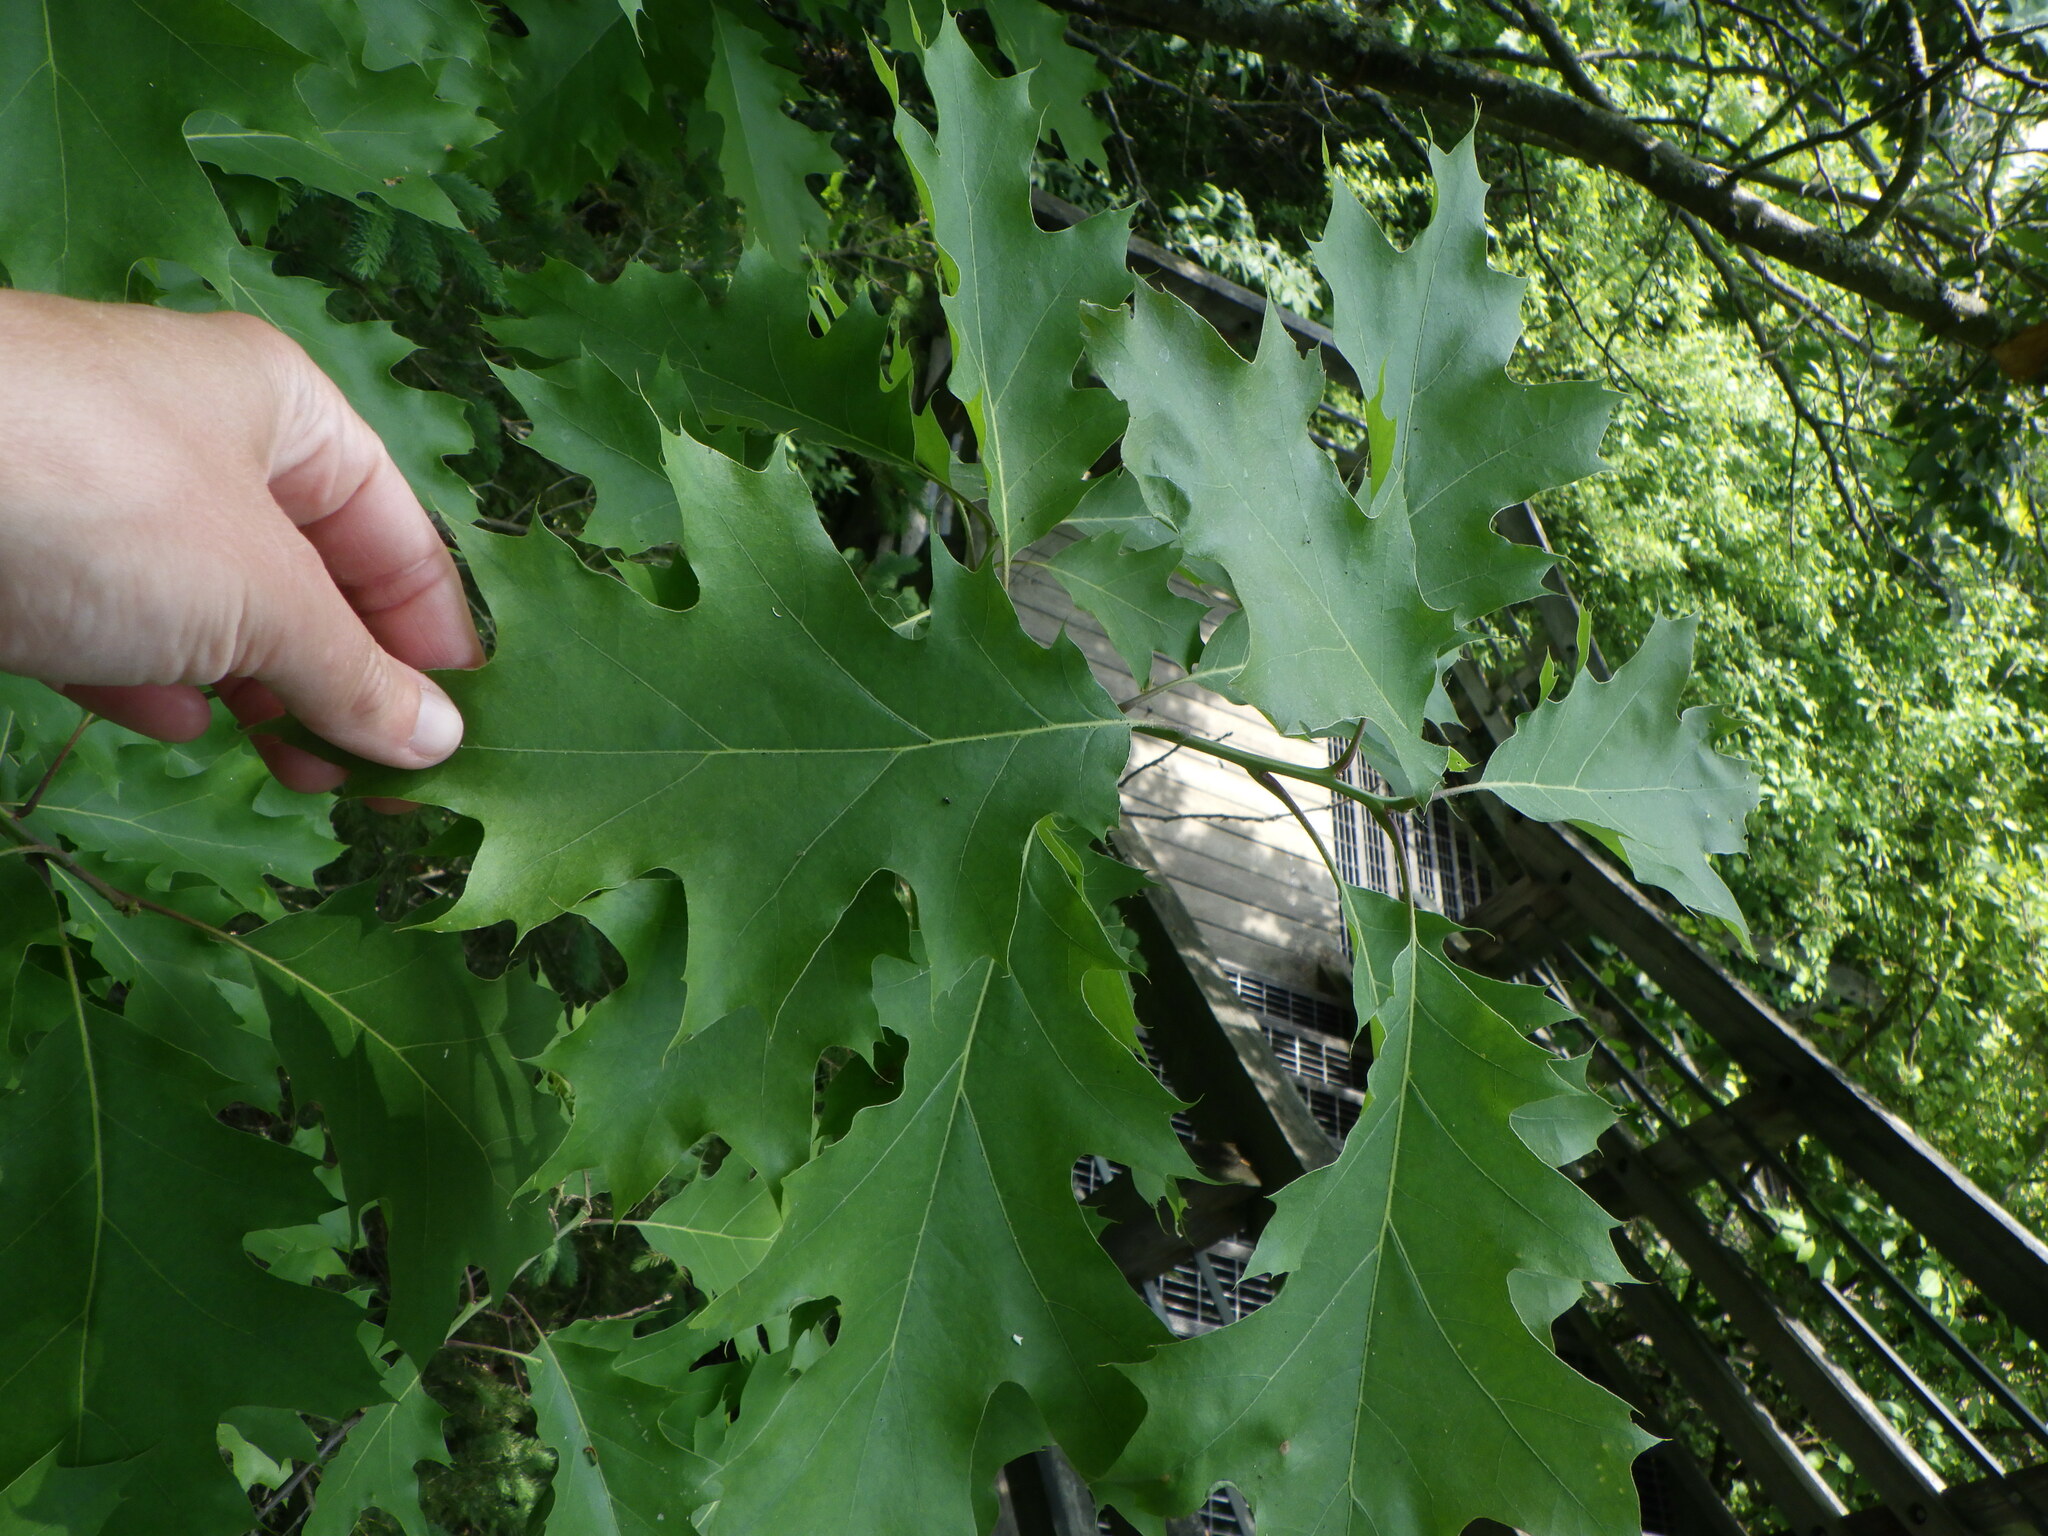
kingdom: Plantae
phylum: Tracheophyta
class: Magnoliopsida
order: Fagales
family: Fagaceae
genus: Quercus
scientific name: Quercus rubra
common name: Red oak
